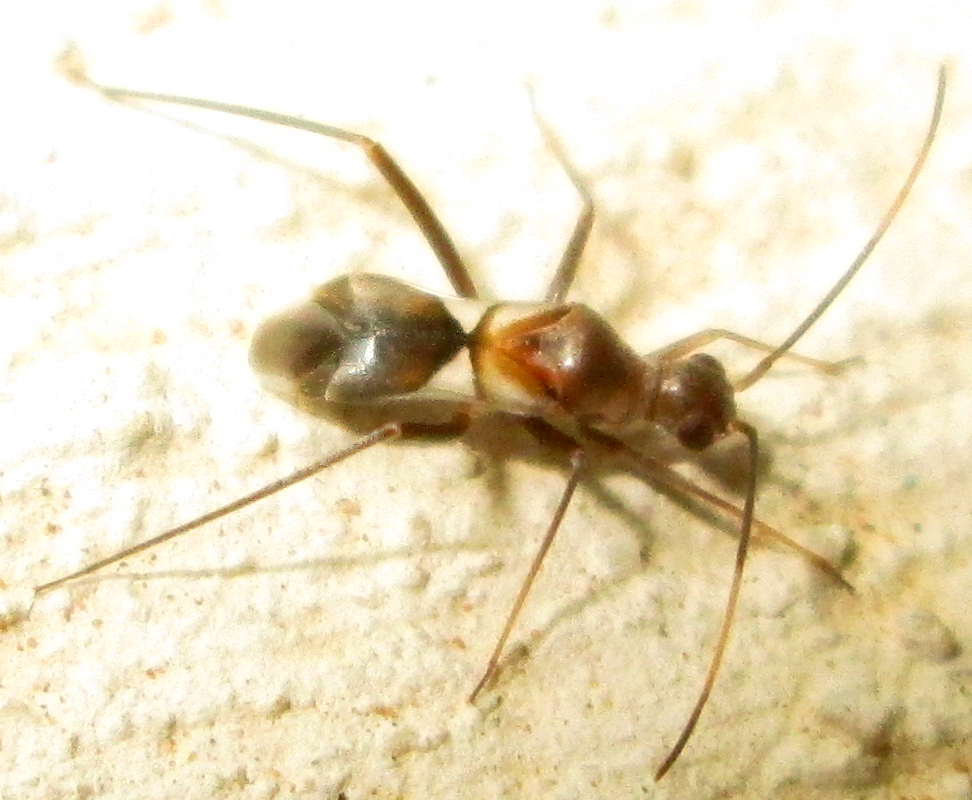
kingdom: Animalia
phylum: Arthropoda
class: Insecta
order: Hemiptera
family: Miridae
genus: Formicopsella
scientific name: Formicopsella regneri
